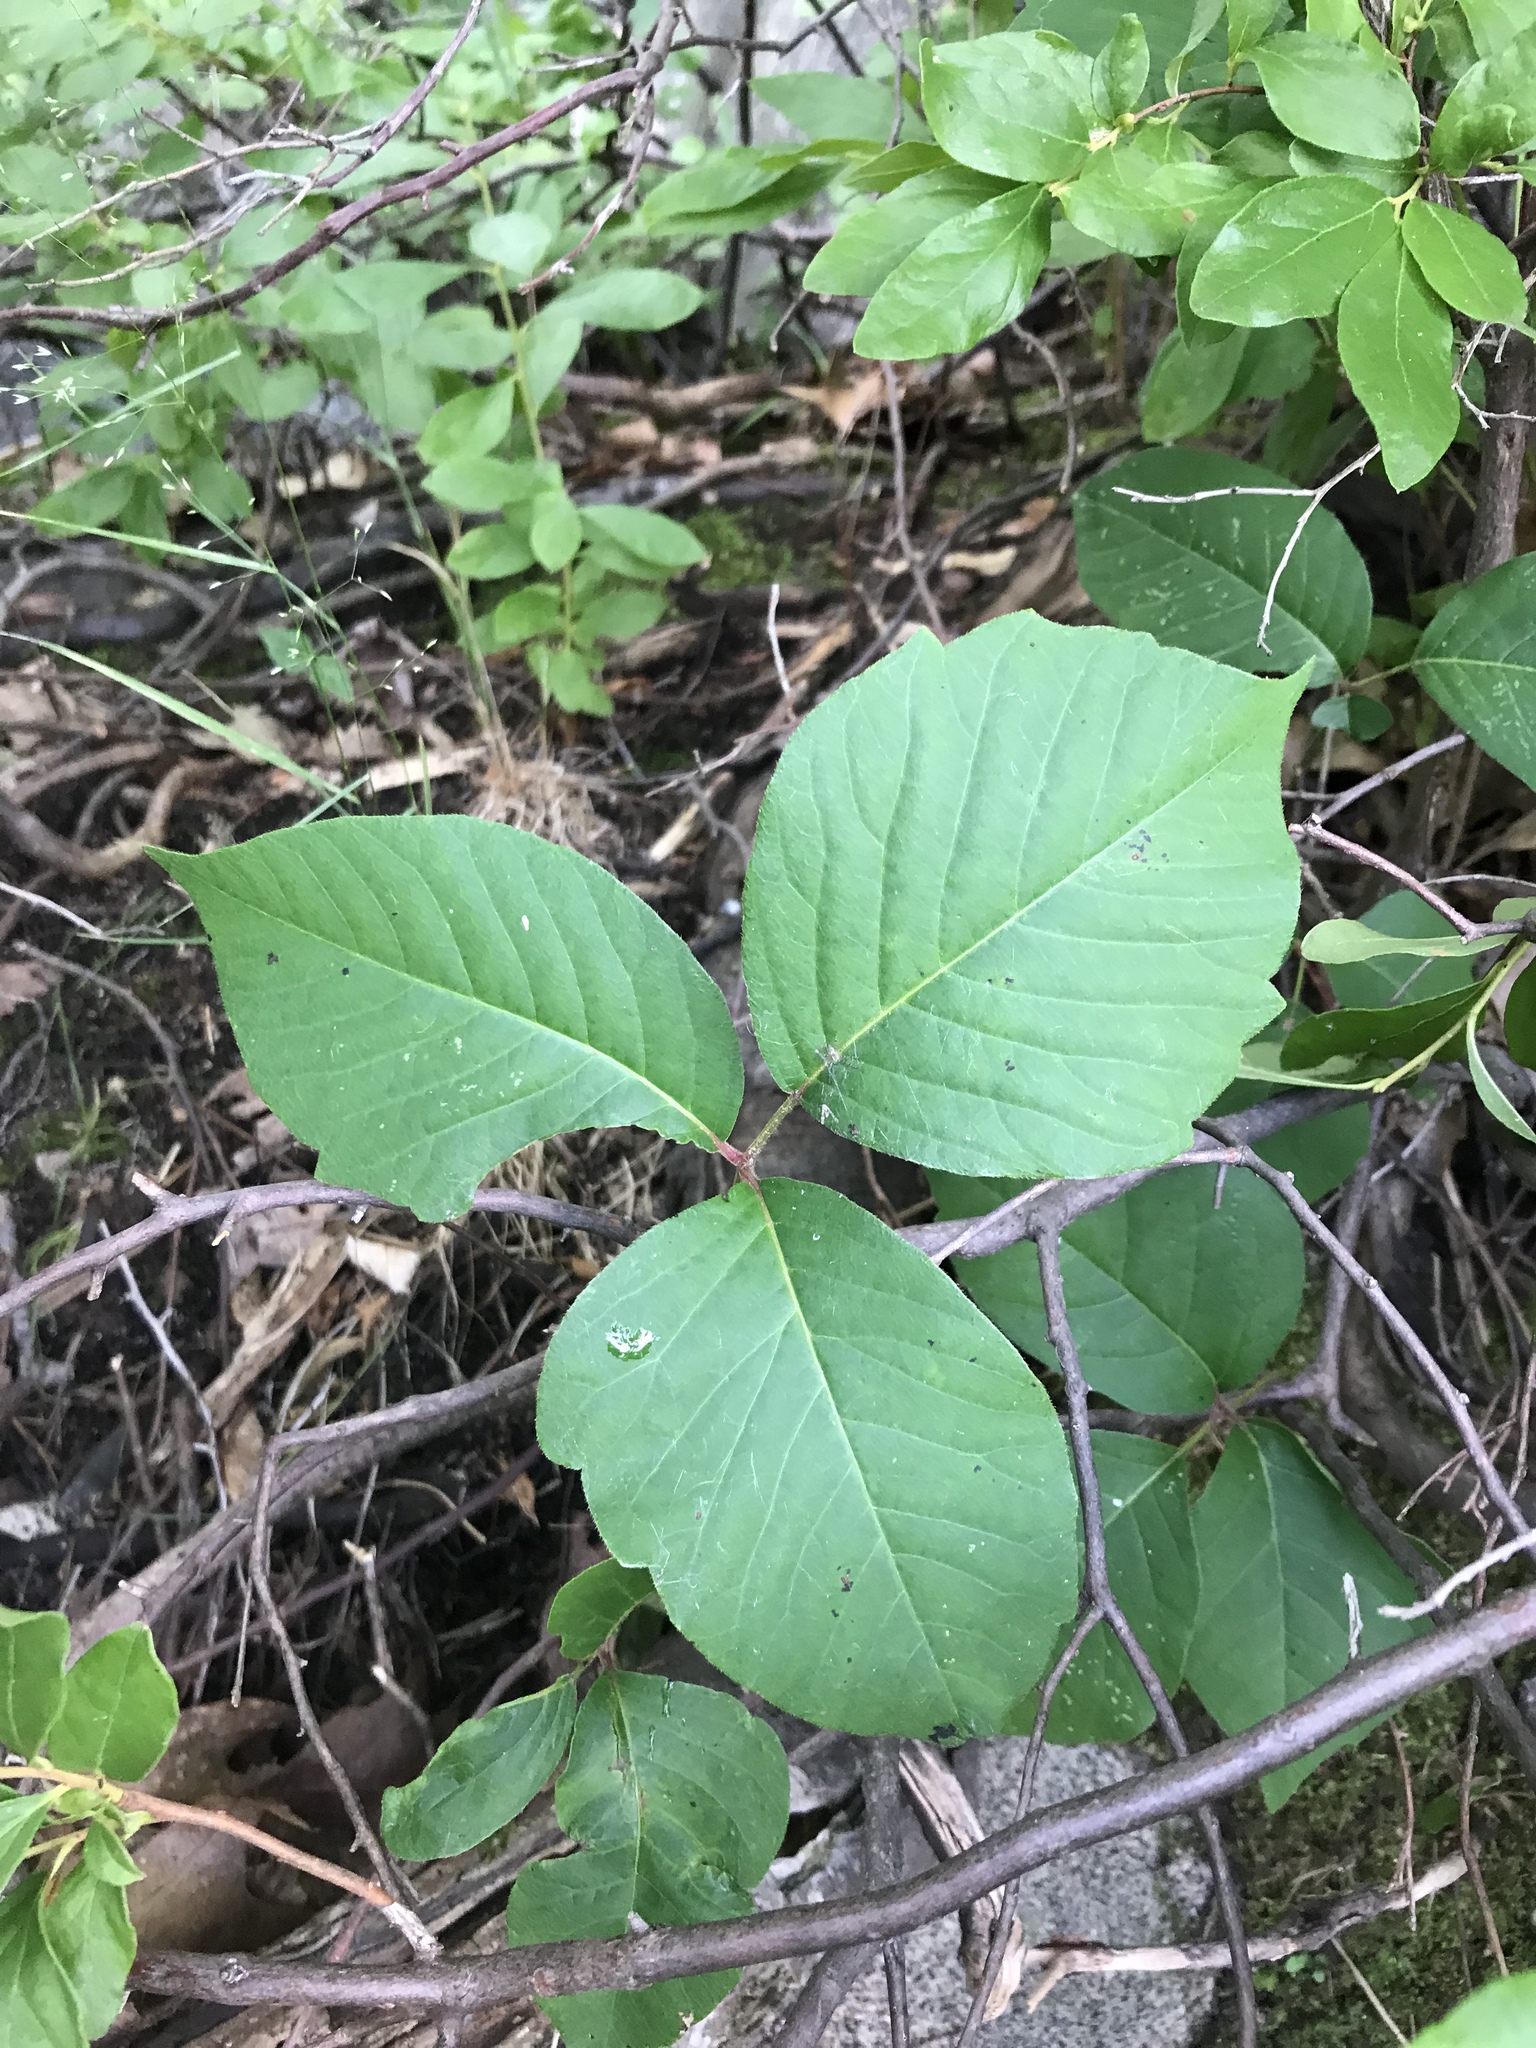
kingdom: Plantae
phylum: Tracheophyta
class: Magnoliopsida
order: Sapindales
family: Anacardiaceae
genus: Toxicodendron
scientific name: Toxicodendron radicans
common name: Poison ivy
